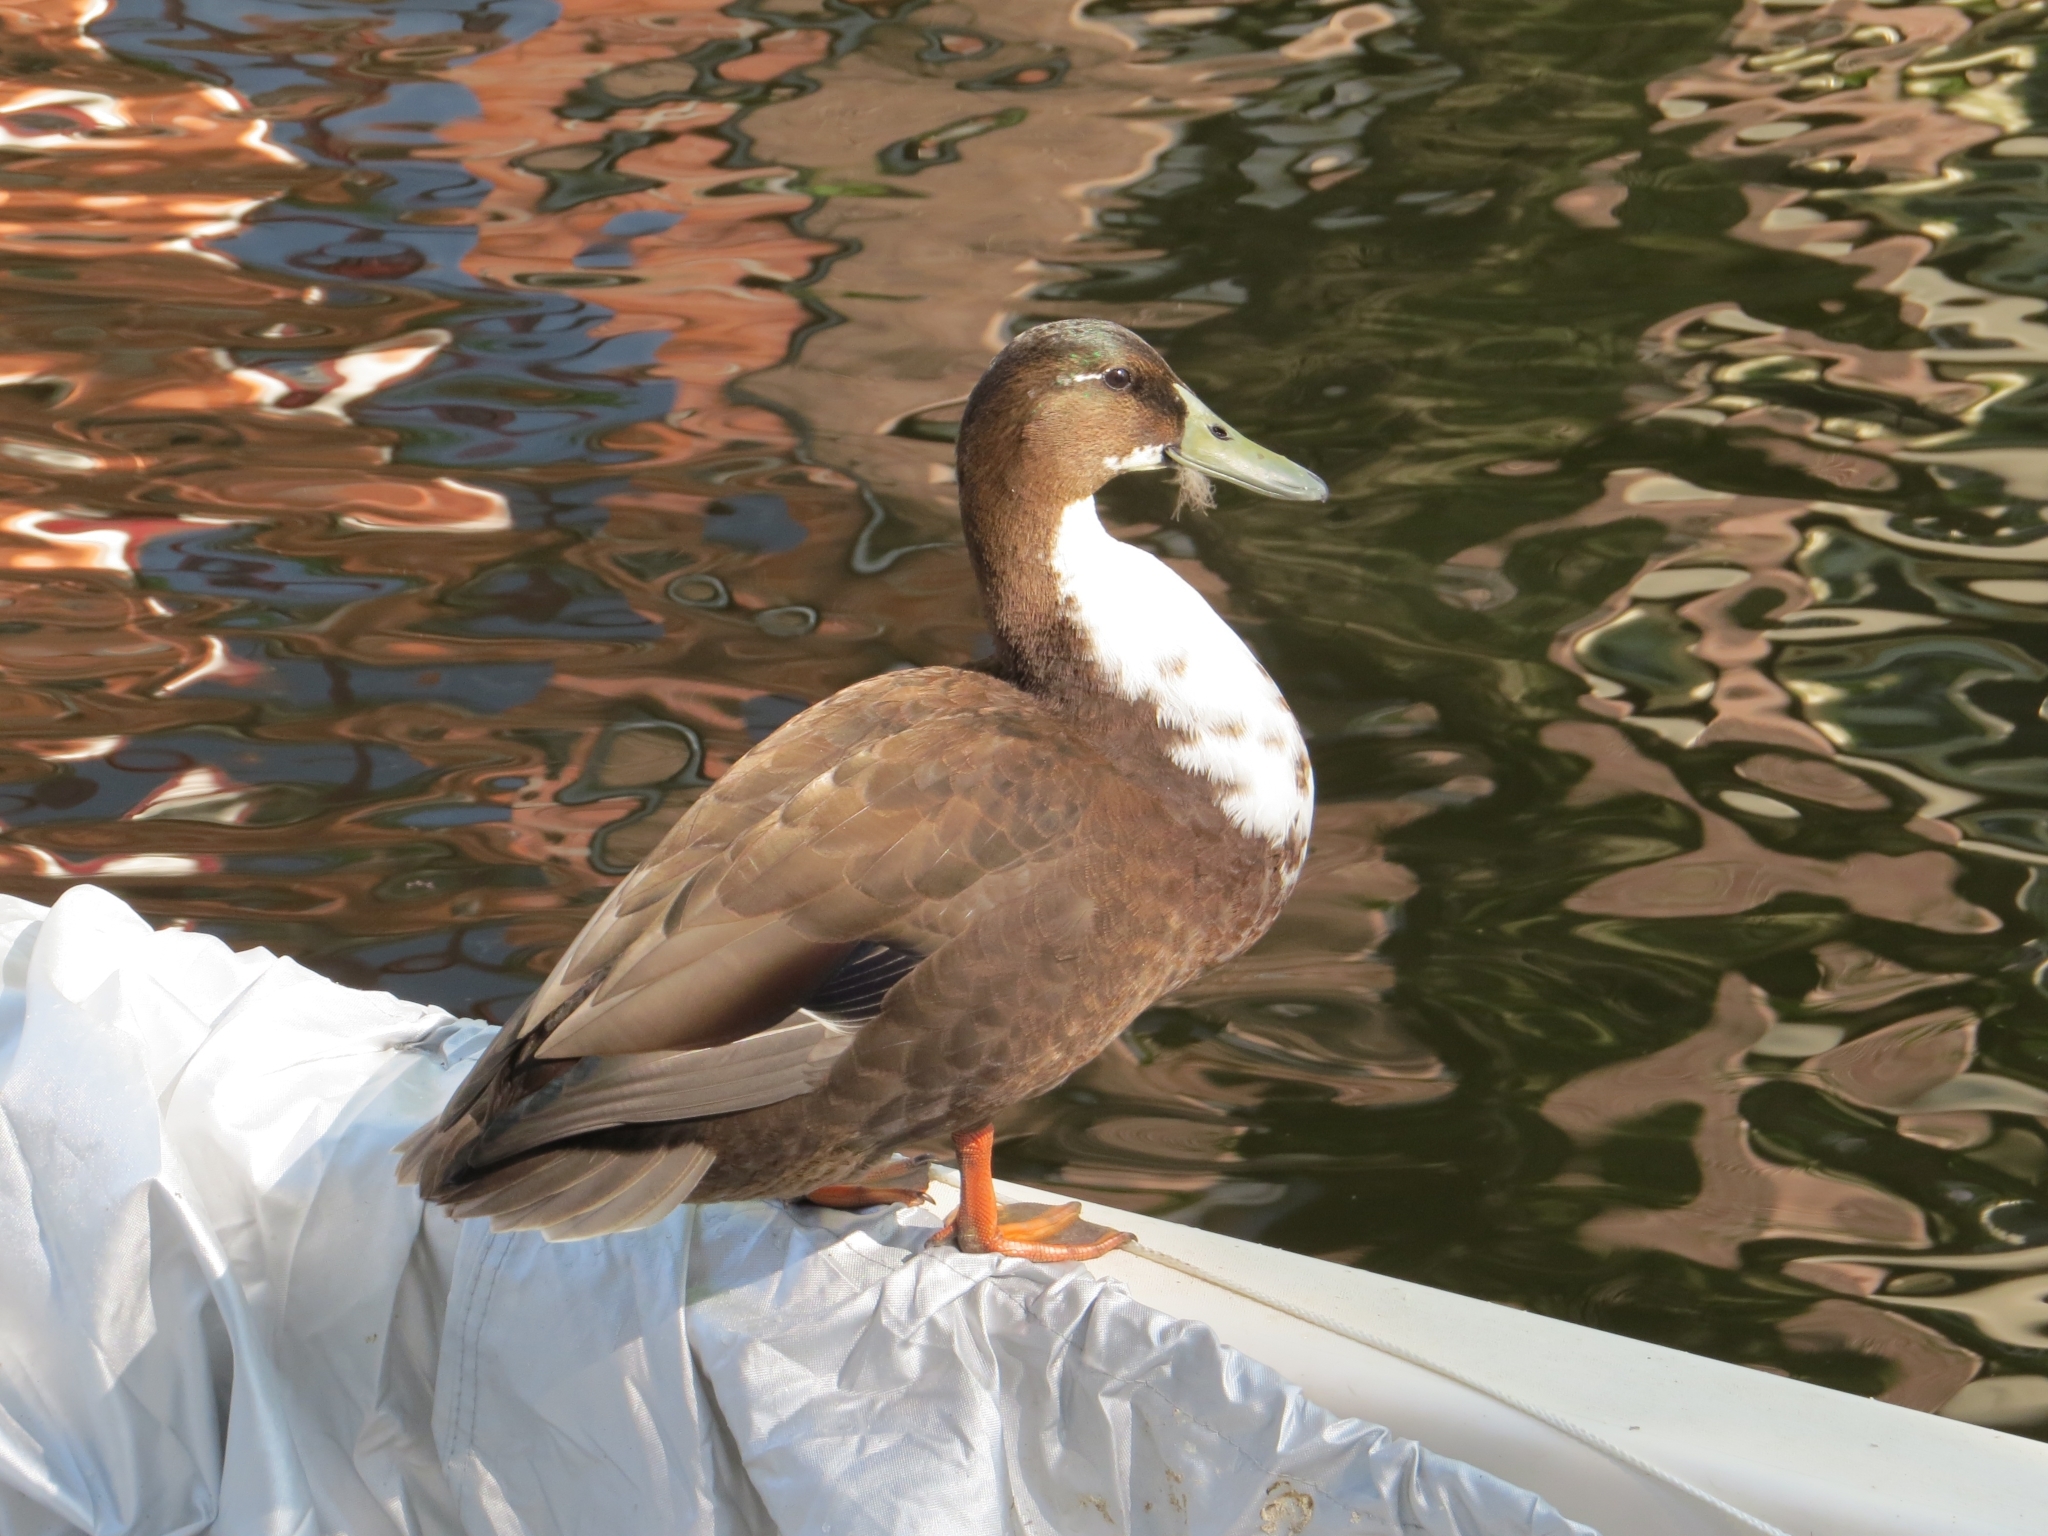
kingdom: Animalia
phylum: Chordata
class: Aves
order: Anseriformes
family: Anatidae
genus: Anas
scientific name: Anas platyrhynchos
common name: Mallard
